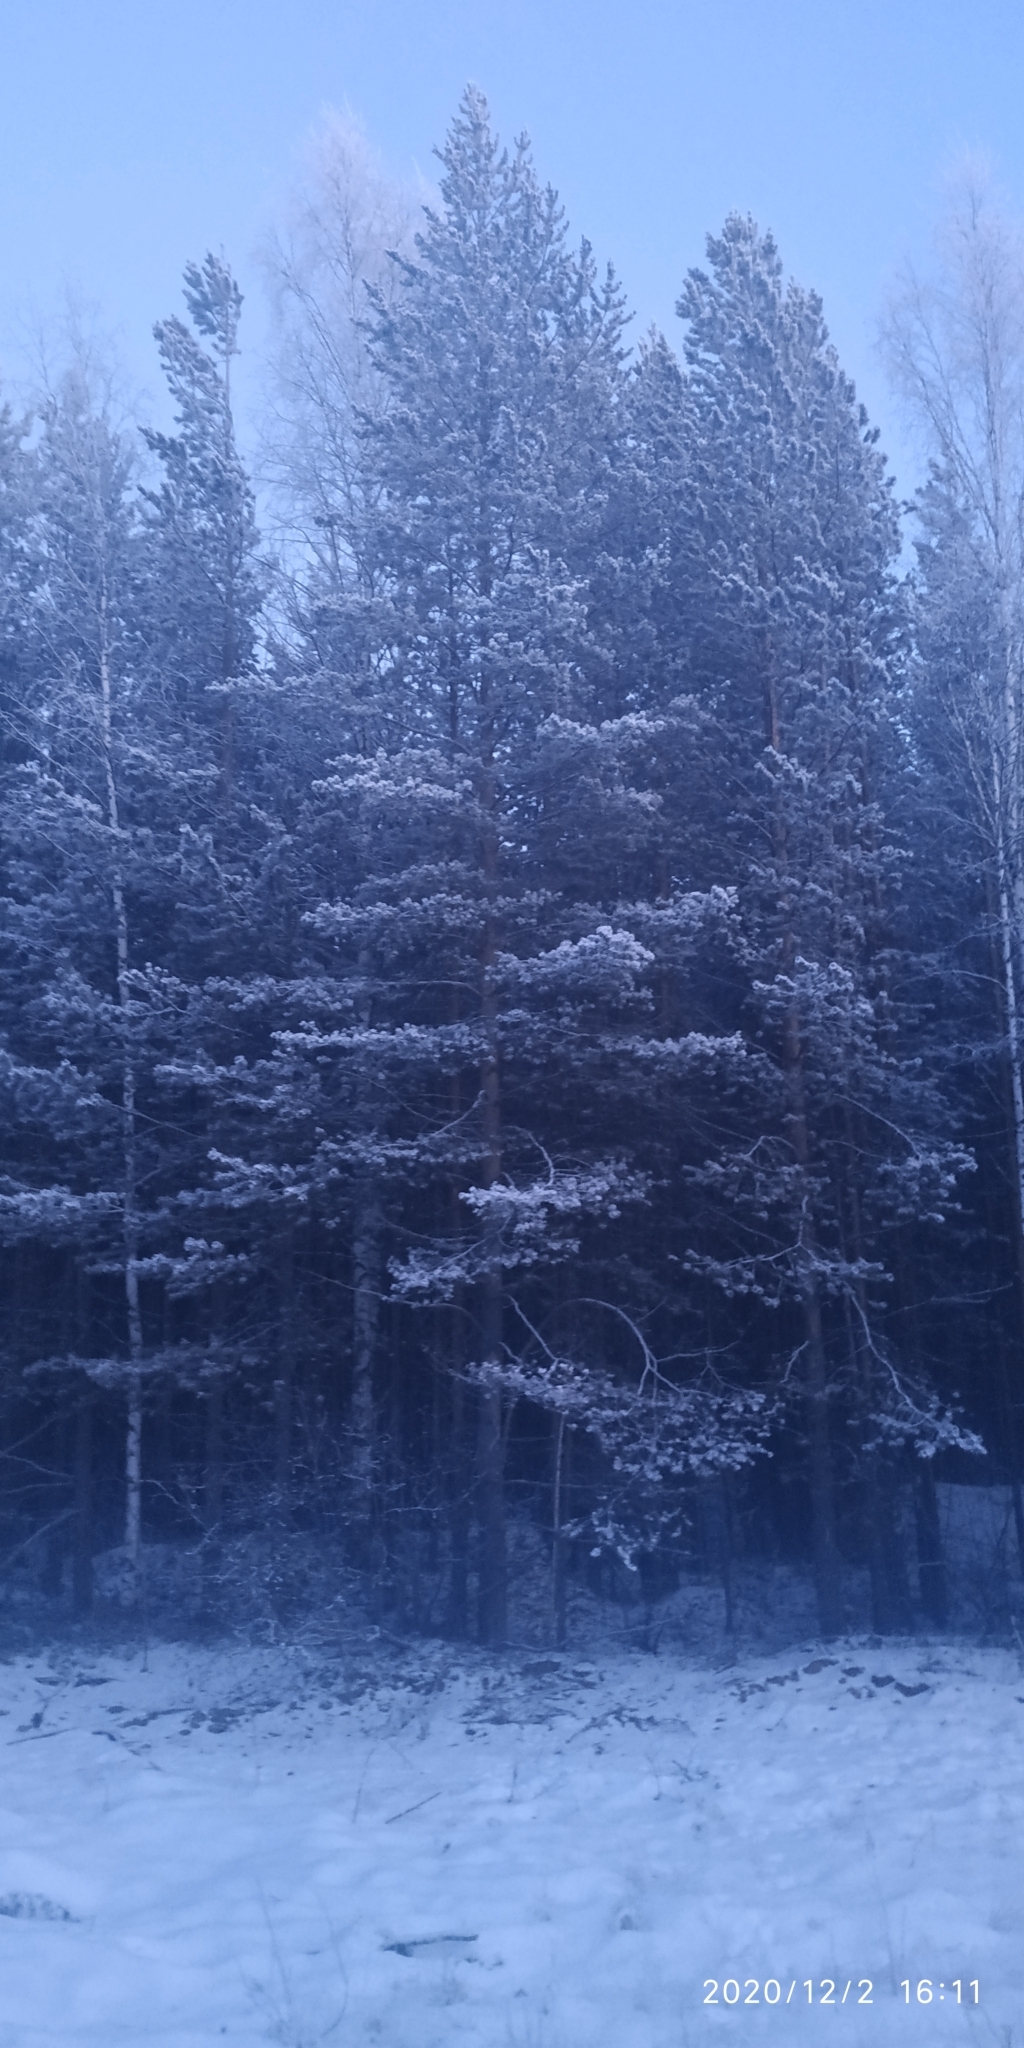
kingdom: Plantae
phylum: Tracheophyta
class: Pinopsida
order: Pinales
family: Pinaceae
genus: Pinus
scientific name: Pinus sylvestris
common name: Scots pine
